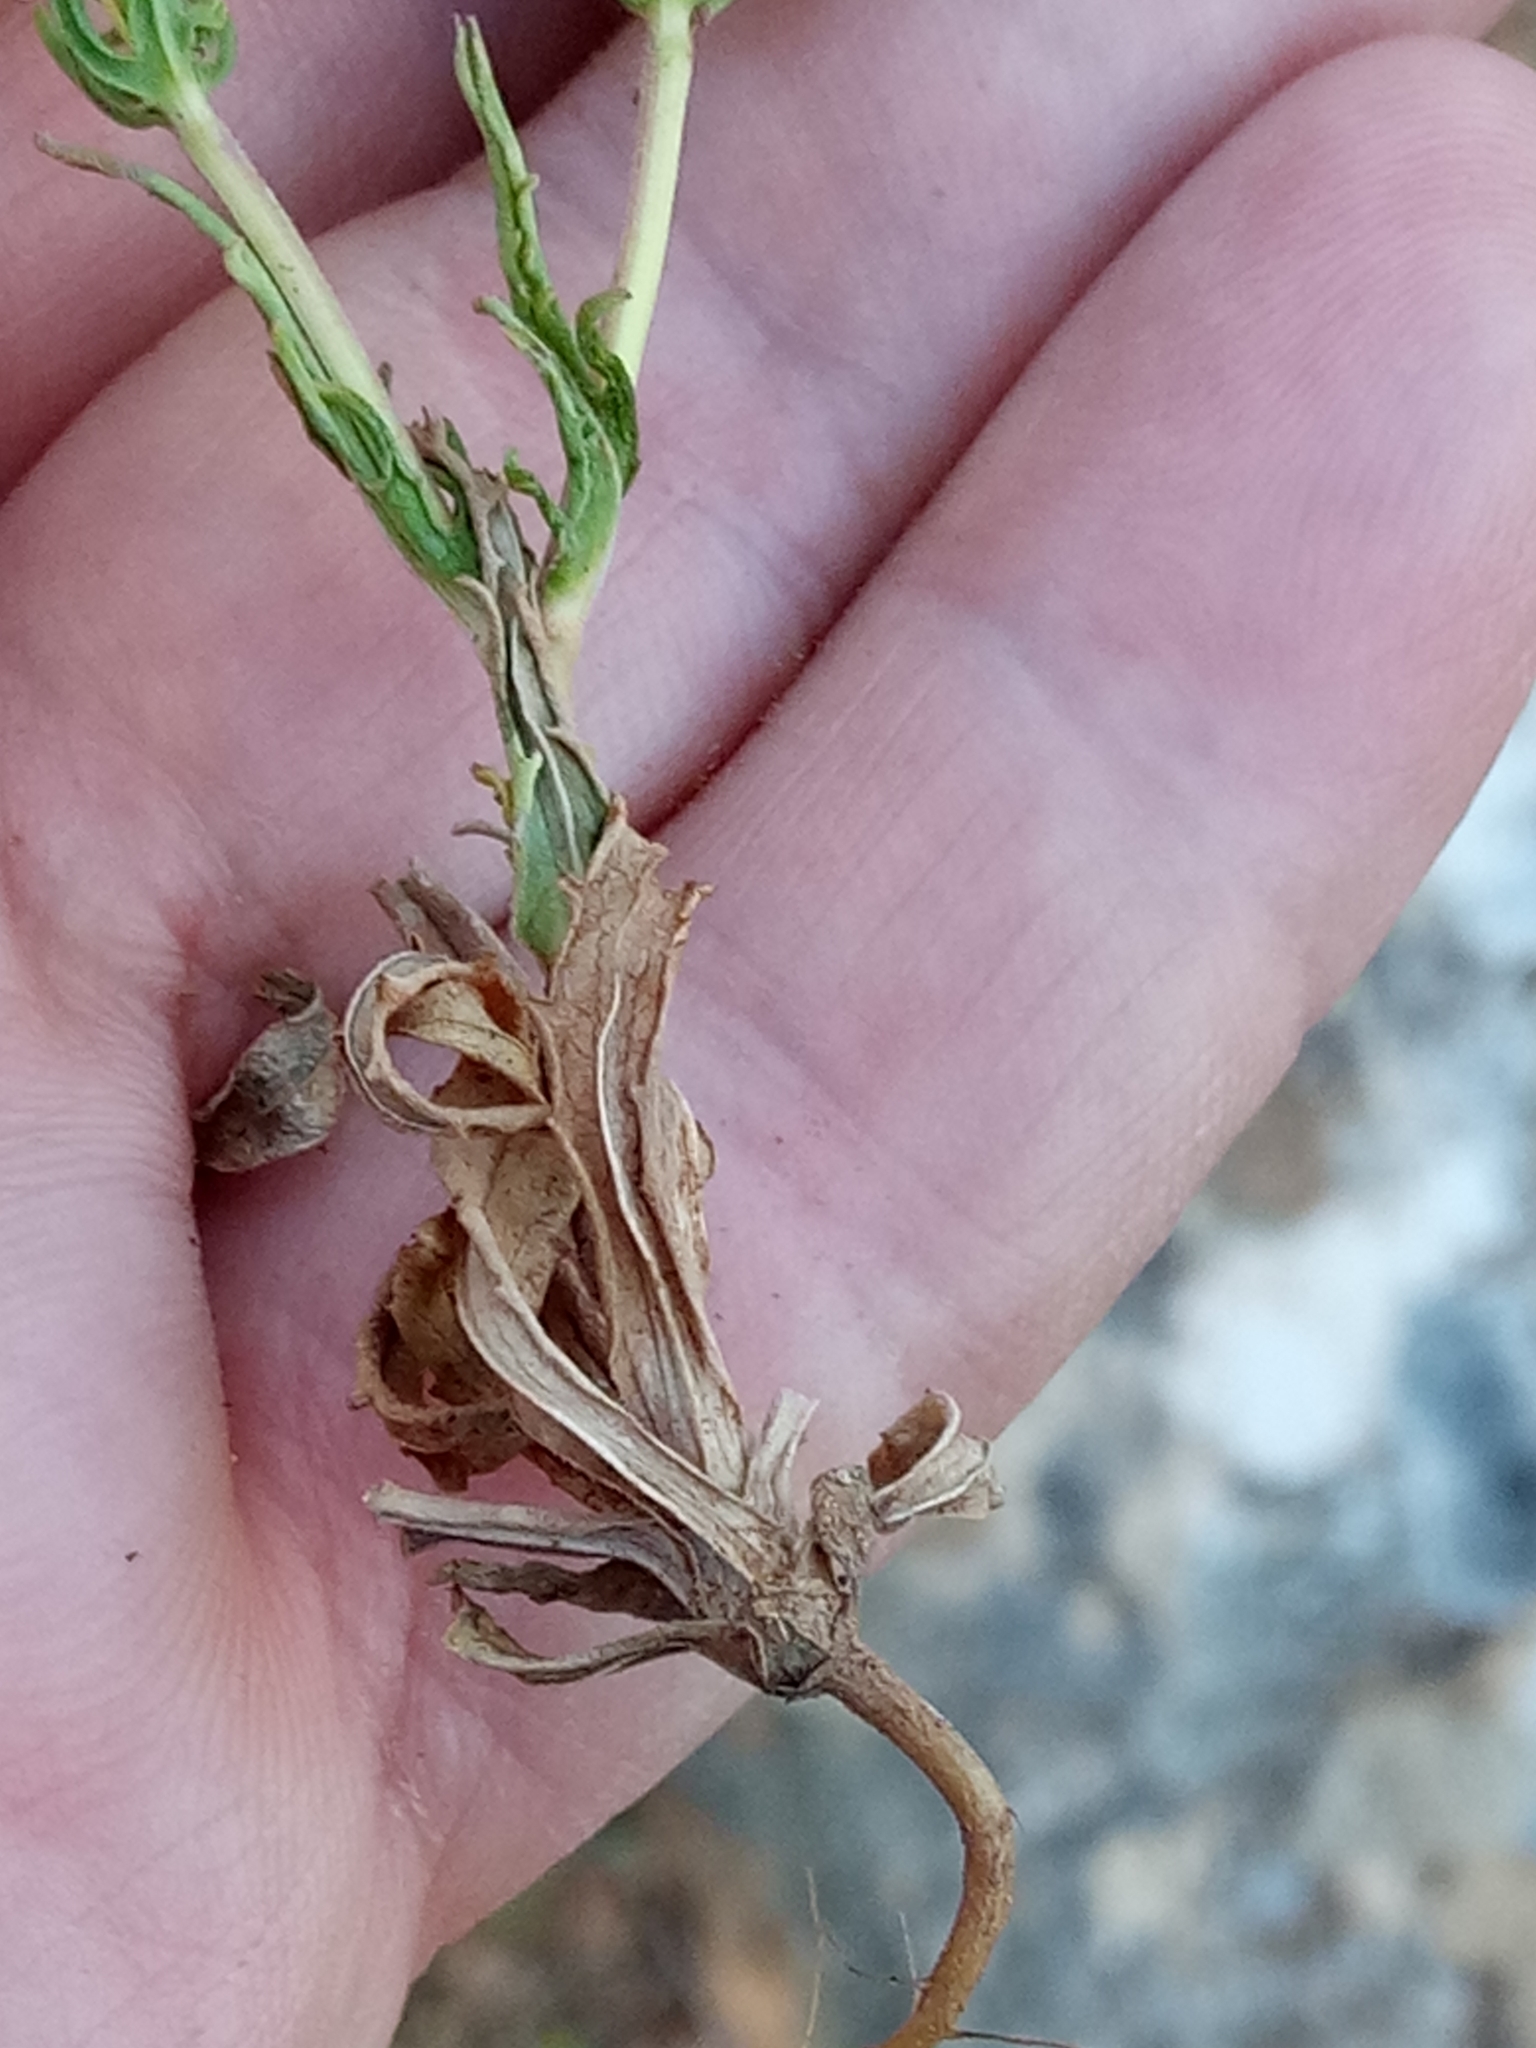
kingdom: Plantae
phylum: Tracheophyta
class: Magnoliopsida
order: Dipsacales
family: Caprifoliaceae
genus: Valerianella
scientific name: Valerianella discoidea
